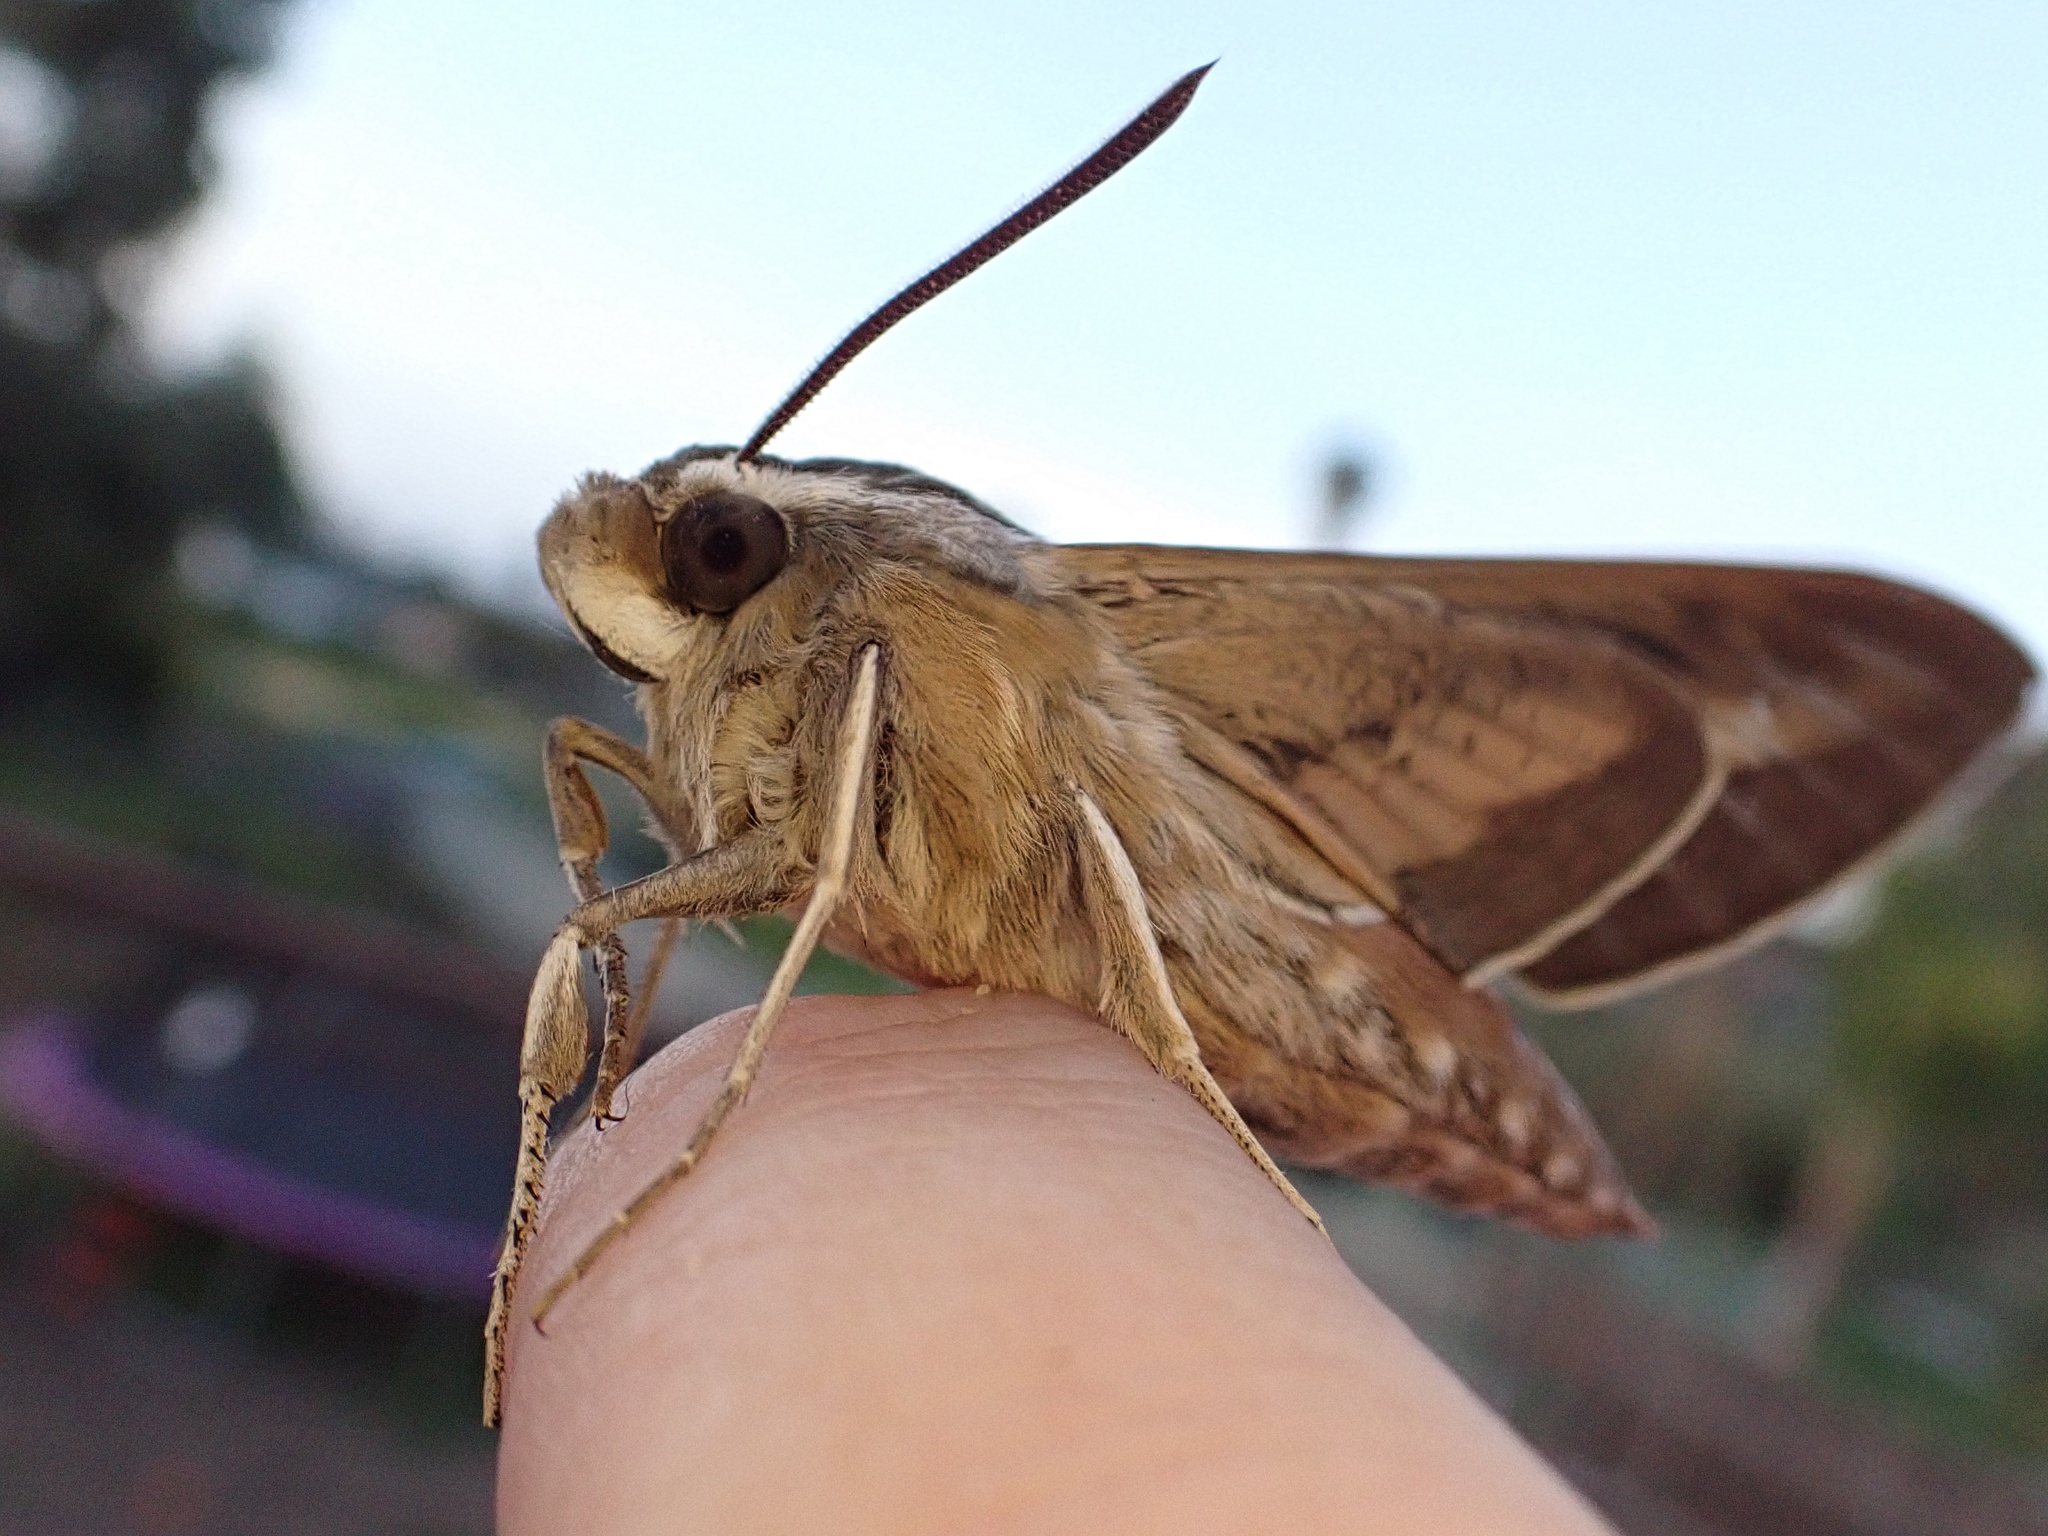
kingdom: Animalia
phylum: Arthropoda
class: Insecta
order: Lepidoptera
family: Sphingidae
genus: Hyles
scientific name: Hyles lineata
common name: White-lined sphinx
